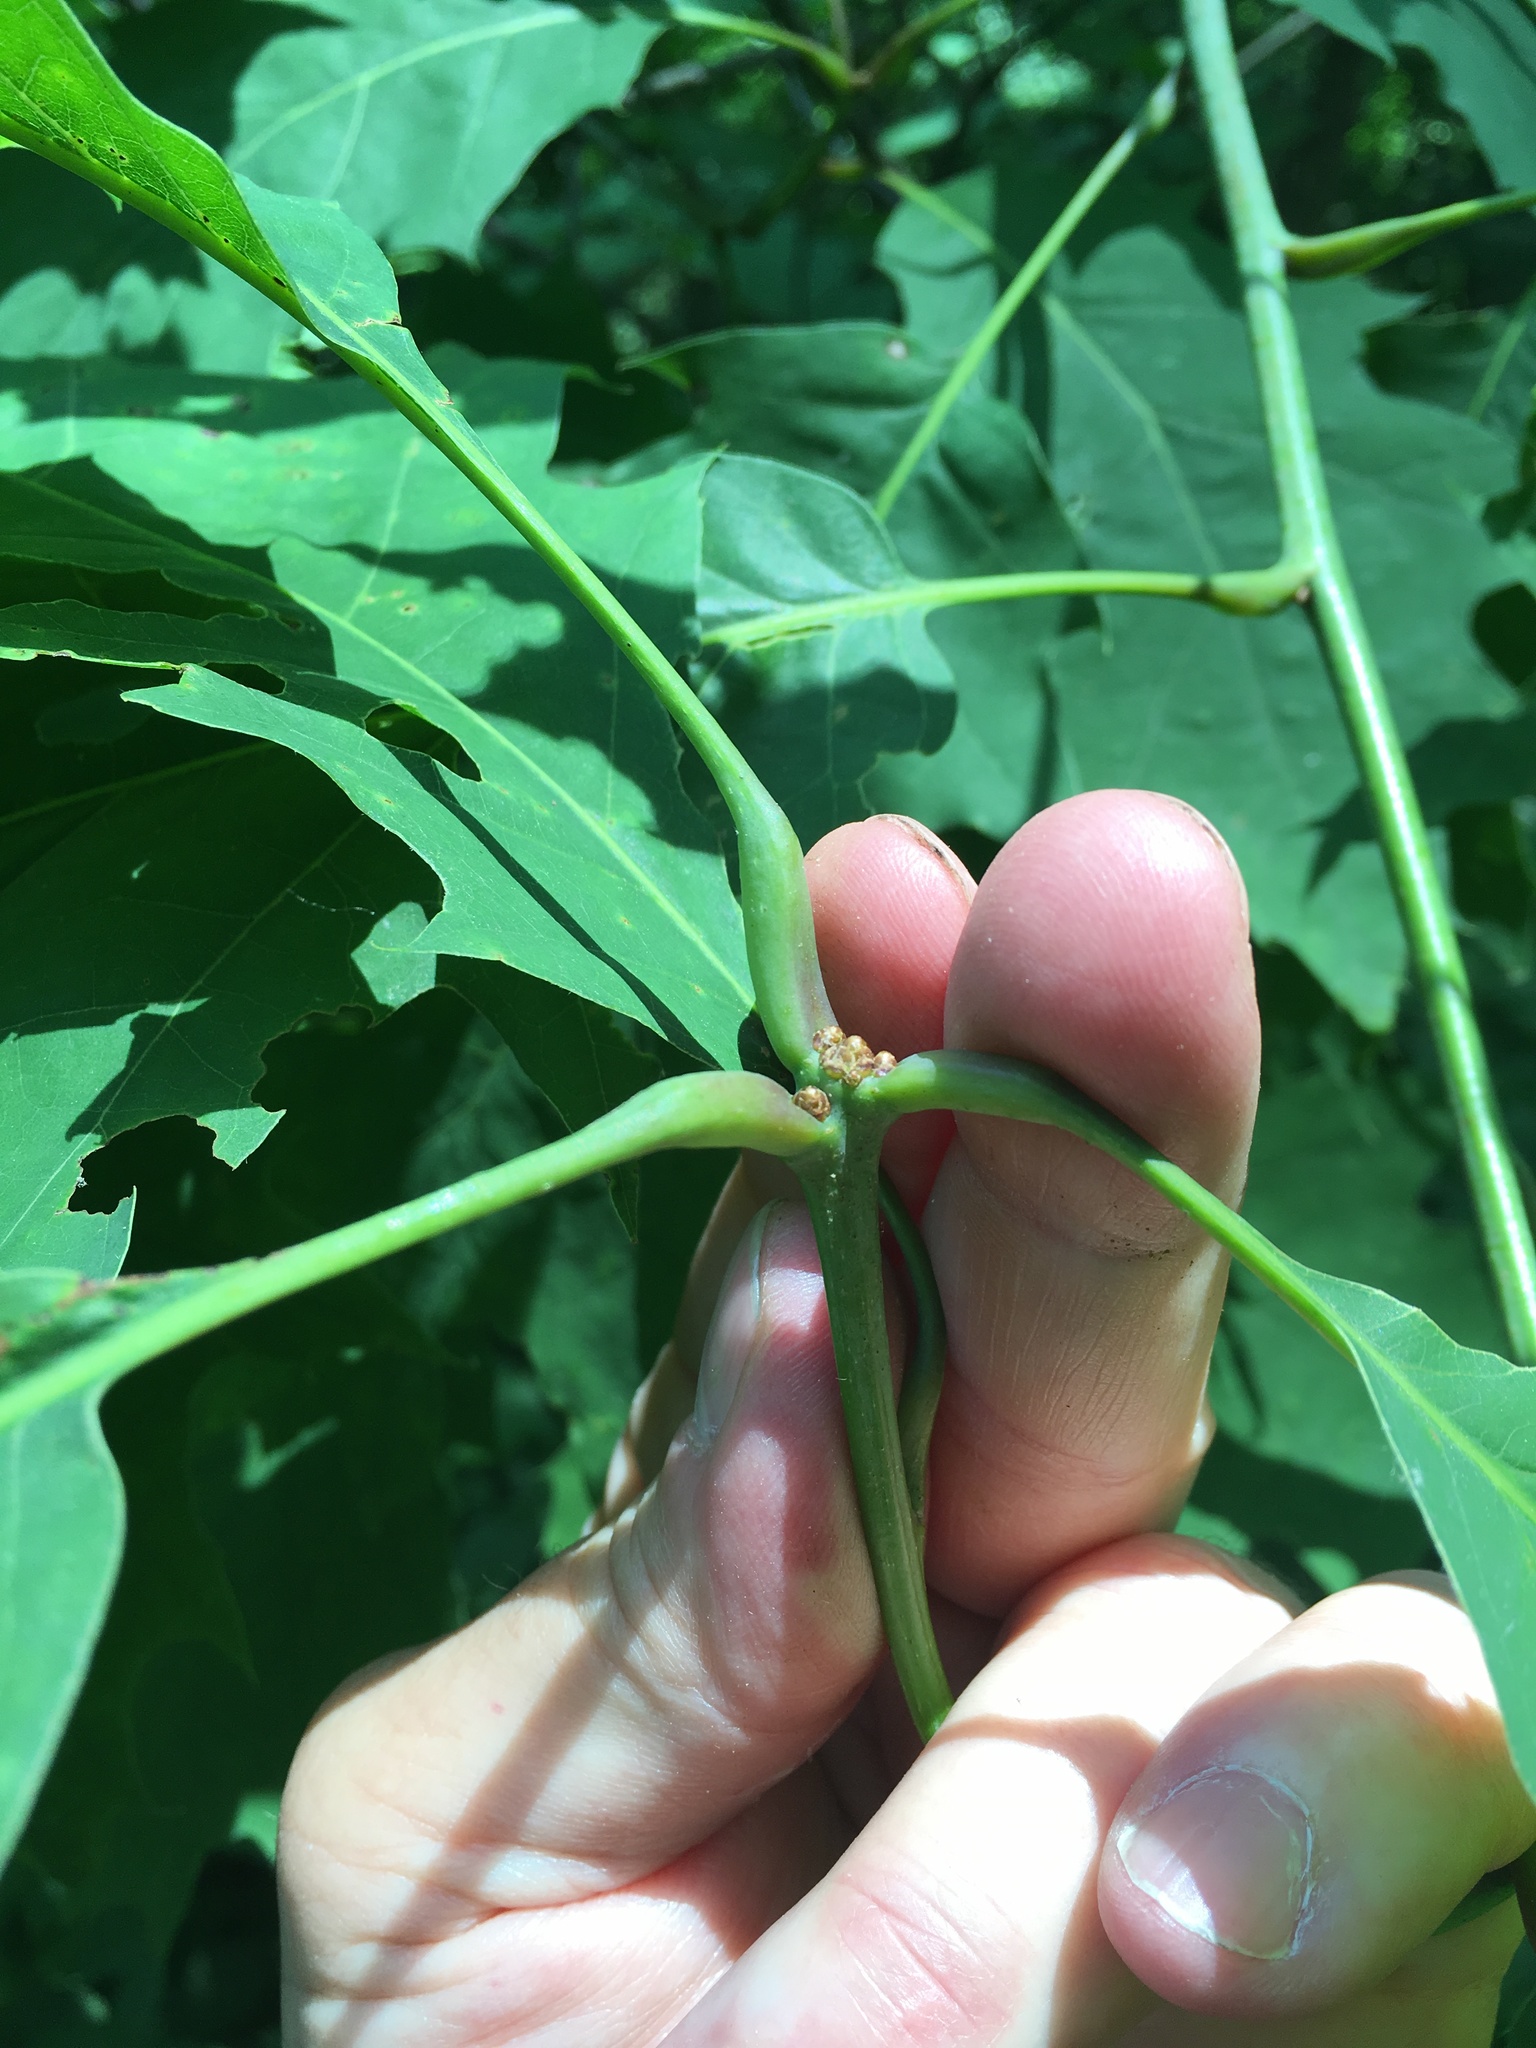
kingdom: Plantae
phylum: Tracheophyta
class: Magnoliopsida
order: Fagales
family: Fagaceae
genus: Quercus
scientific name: Quercus rubra
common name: Red oak
